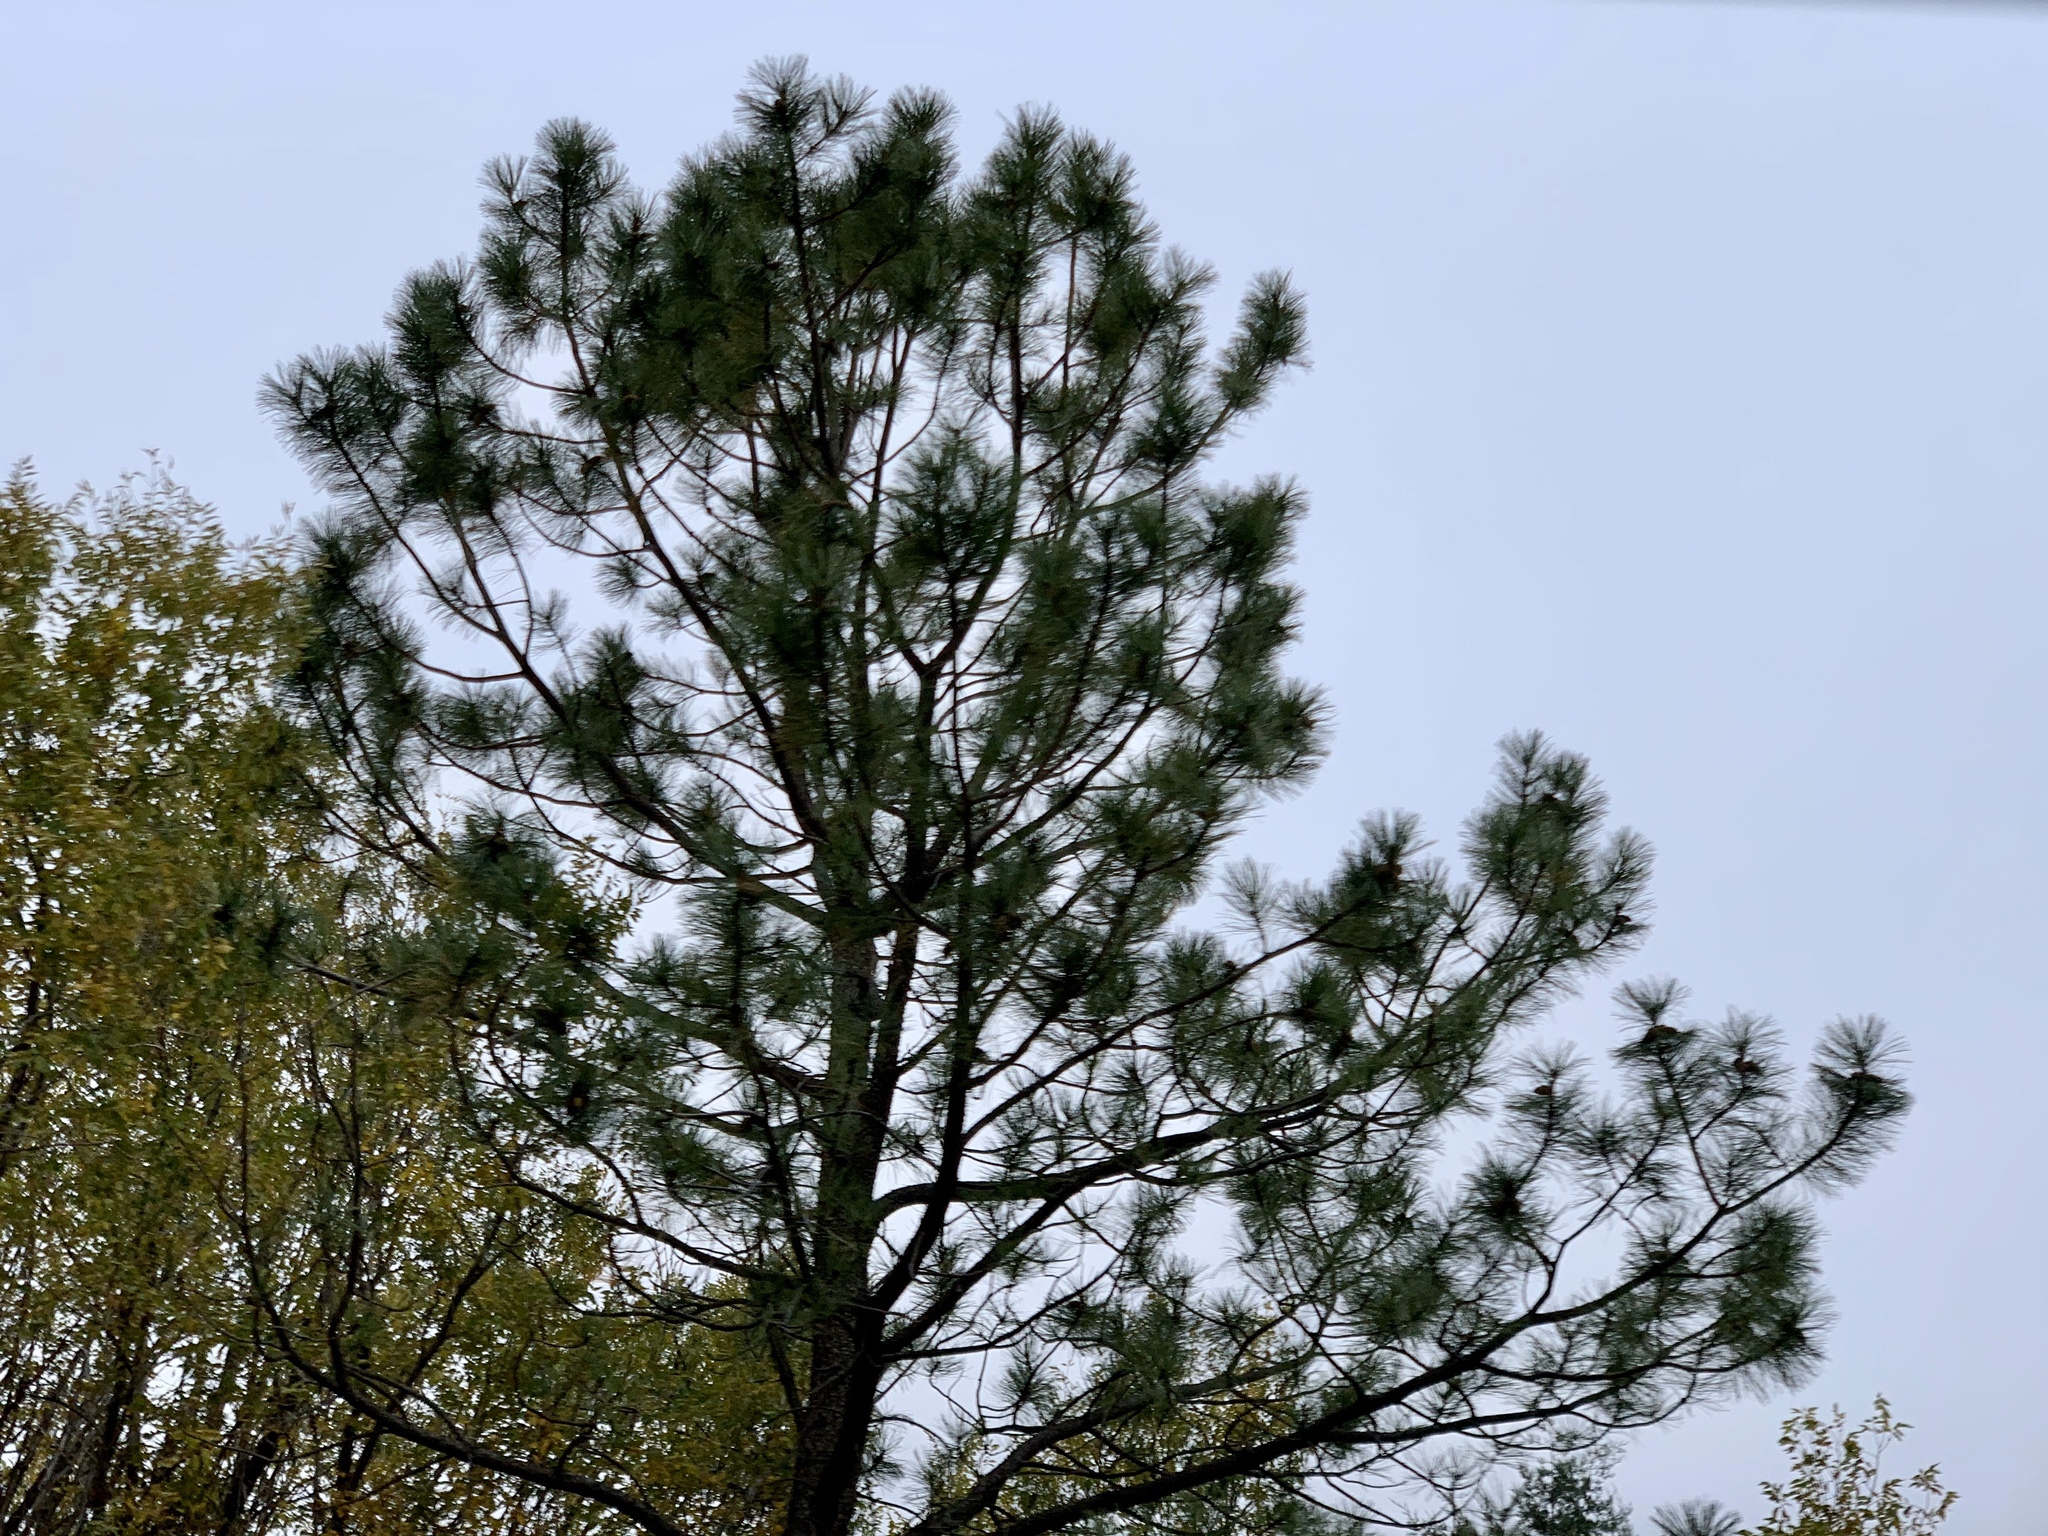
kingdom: Plantae
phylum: Tracheophyta
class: Pinopsida
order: Pinales
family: Pinaceae
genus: Pinus
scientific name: Pinus ponderosa
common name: Western yellow-pine
